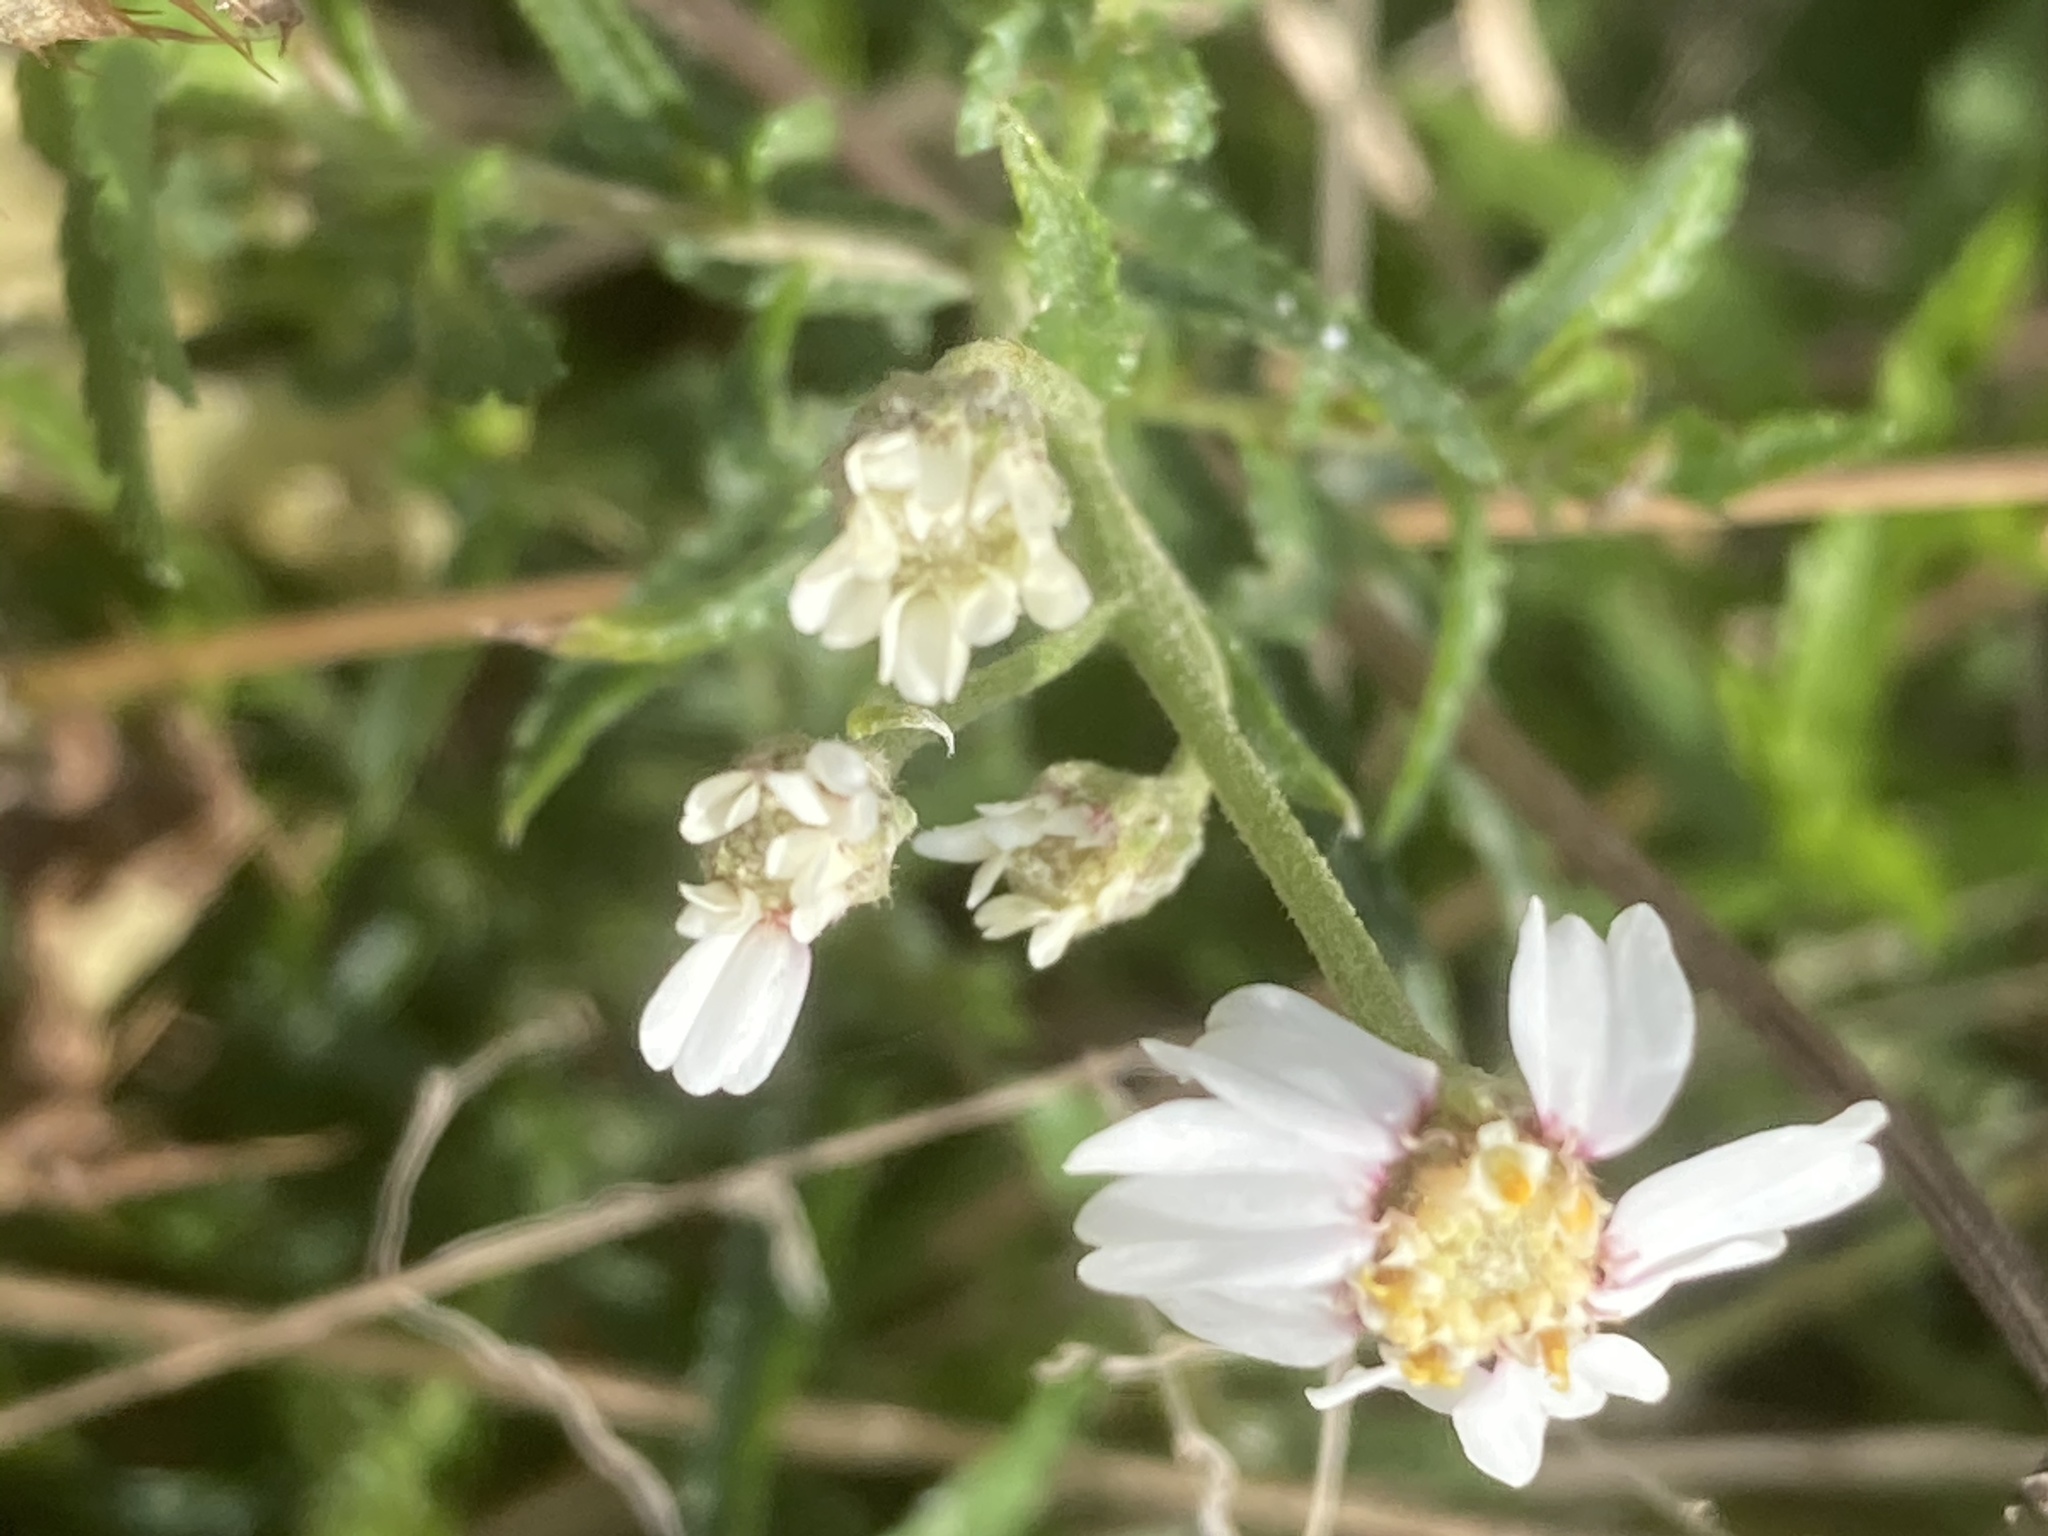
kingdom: Plantae
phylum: Tracheophyta
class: Magnoliopsida
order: Asterales
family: Asteraceae
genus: Achillea
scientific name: Achillea ptarmica
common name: Sneezeweed
